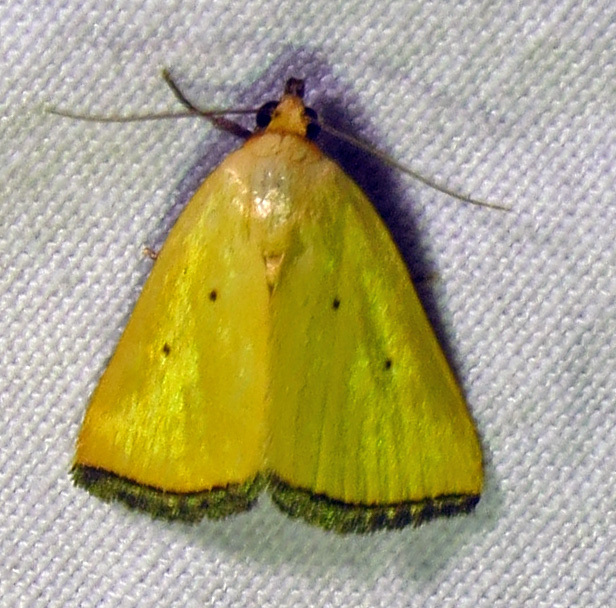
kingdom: Animalia
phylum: Arthropoda
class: Insecta
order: Lepidoptera
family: Noctuidae
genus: Marimatha
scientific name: Marimatha nigrofimbria
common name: Black-bordered lemon moth
